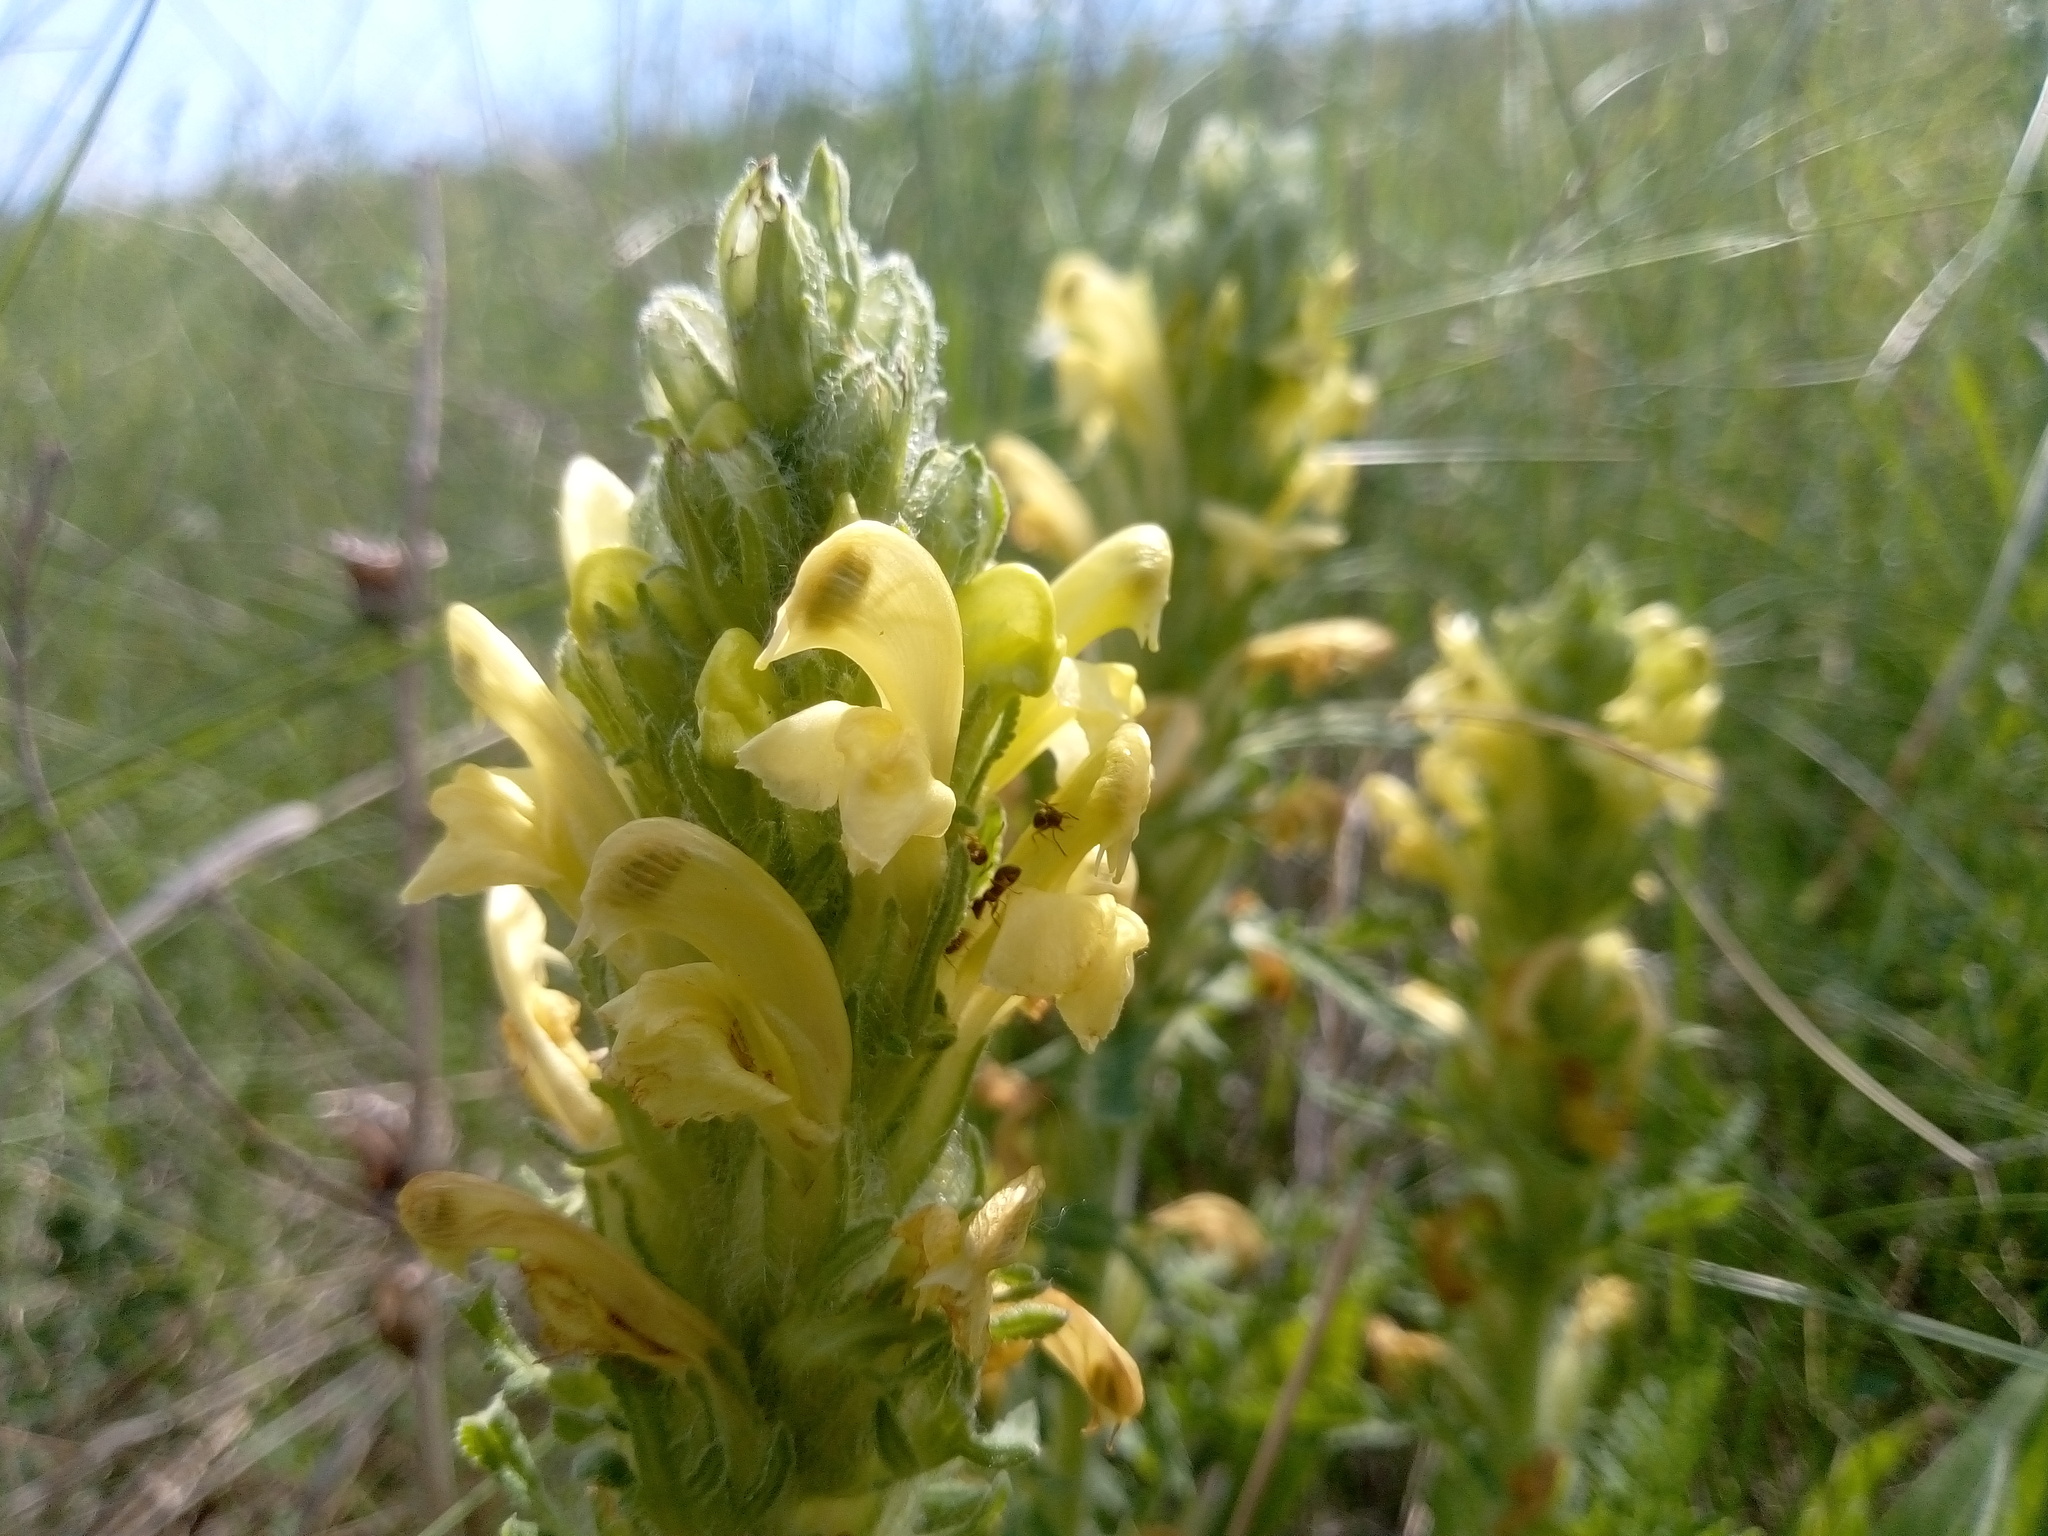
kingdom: Plantae
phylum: Tracheophyta
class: Magnoliopsida
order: Lamiales
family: Orobanchaceae
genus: Pedicularis
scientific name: Pedicularis kaufmannii
